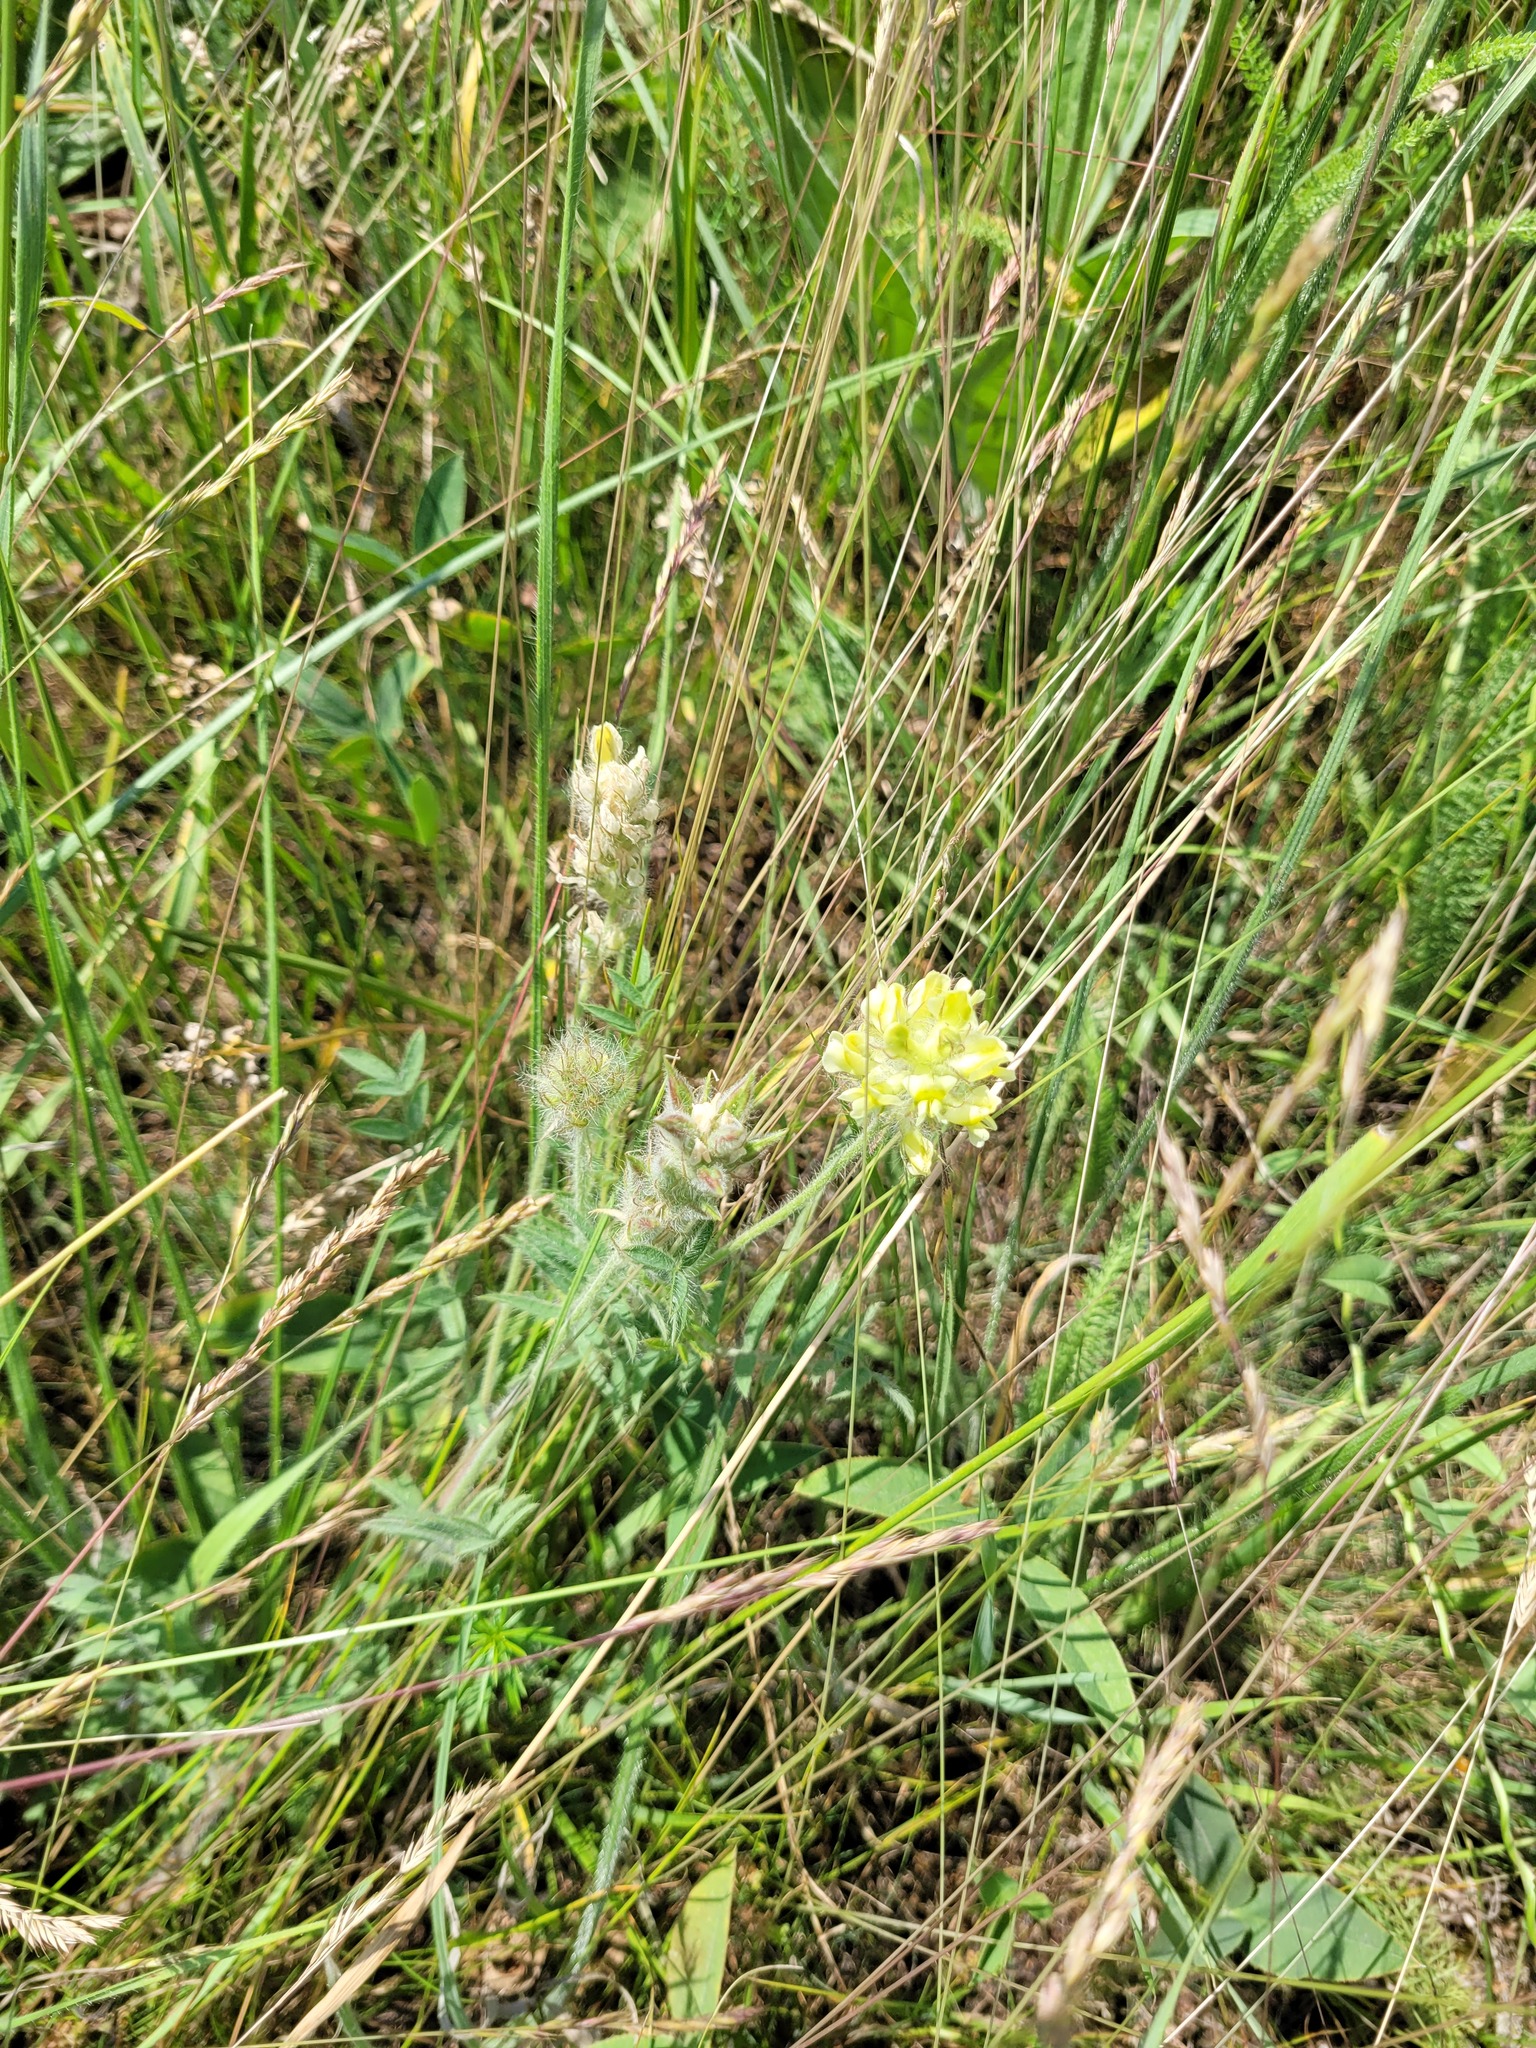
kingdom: Plantae
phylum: Tracheophyta
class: Magnoliopsida
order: Fabales
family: Fabaceae
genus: Oxytropis
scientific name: Oxytropis pilosa
